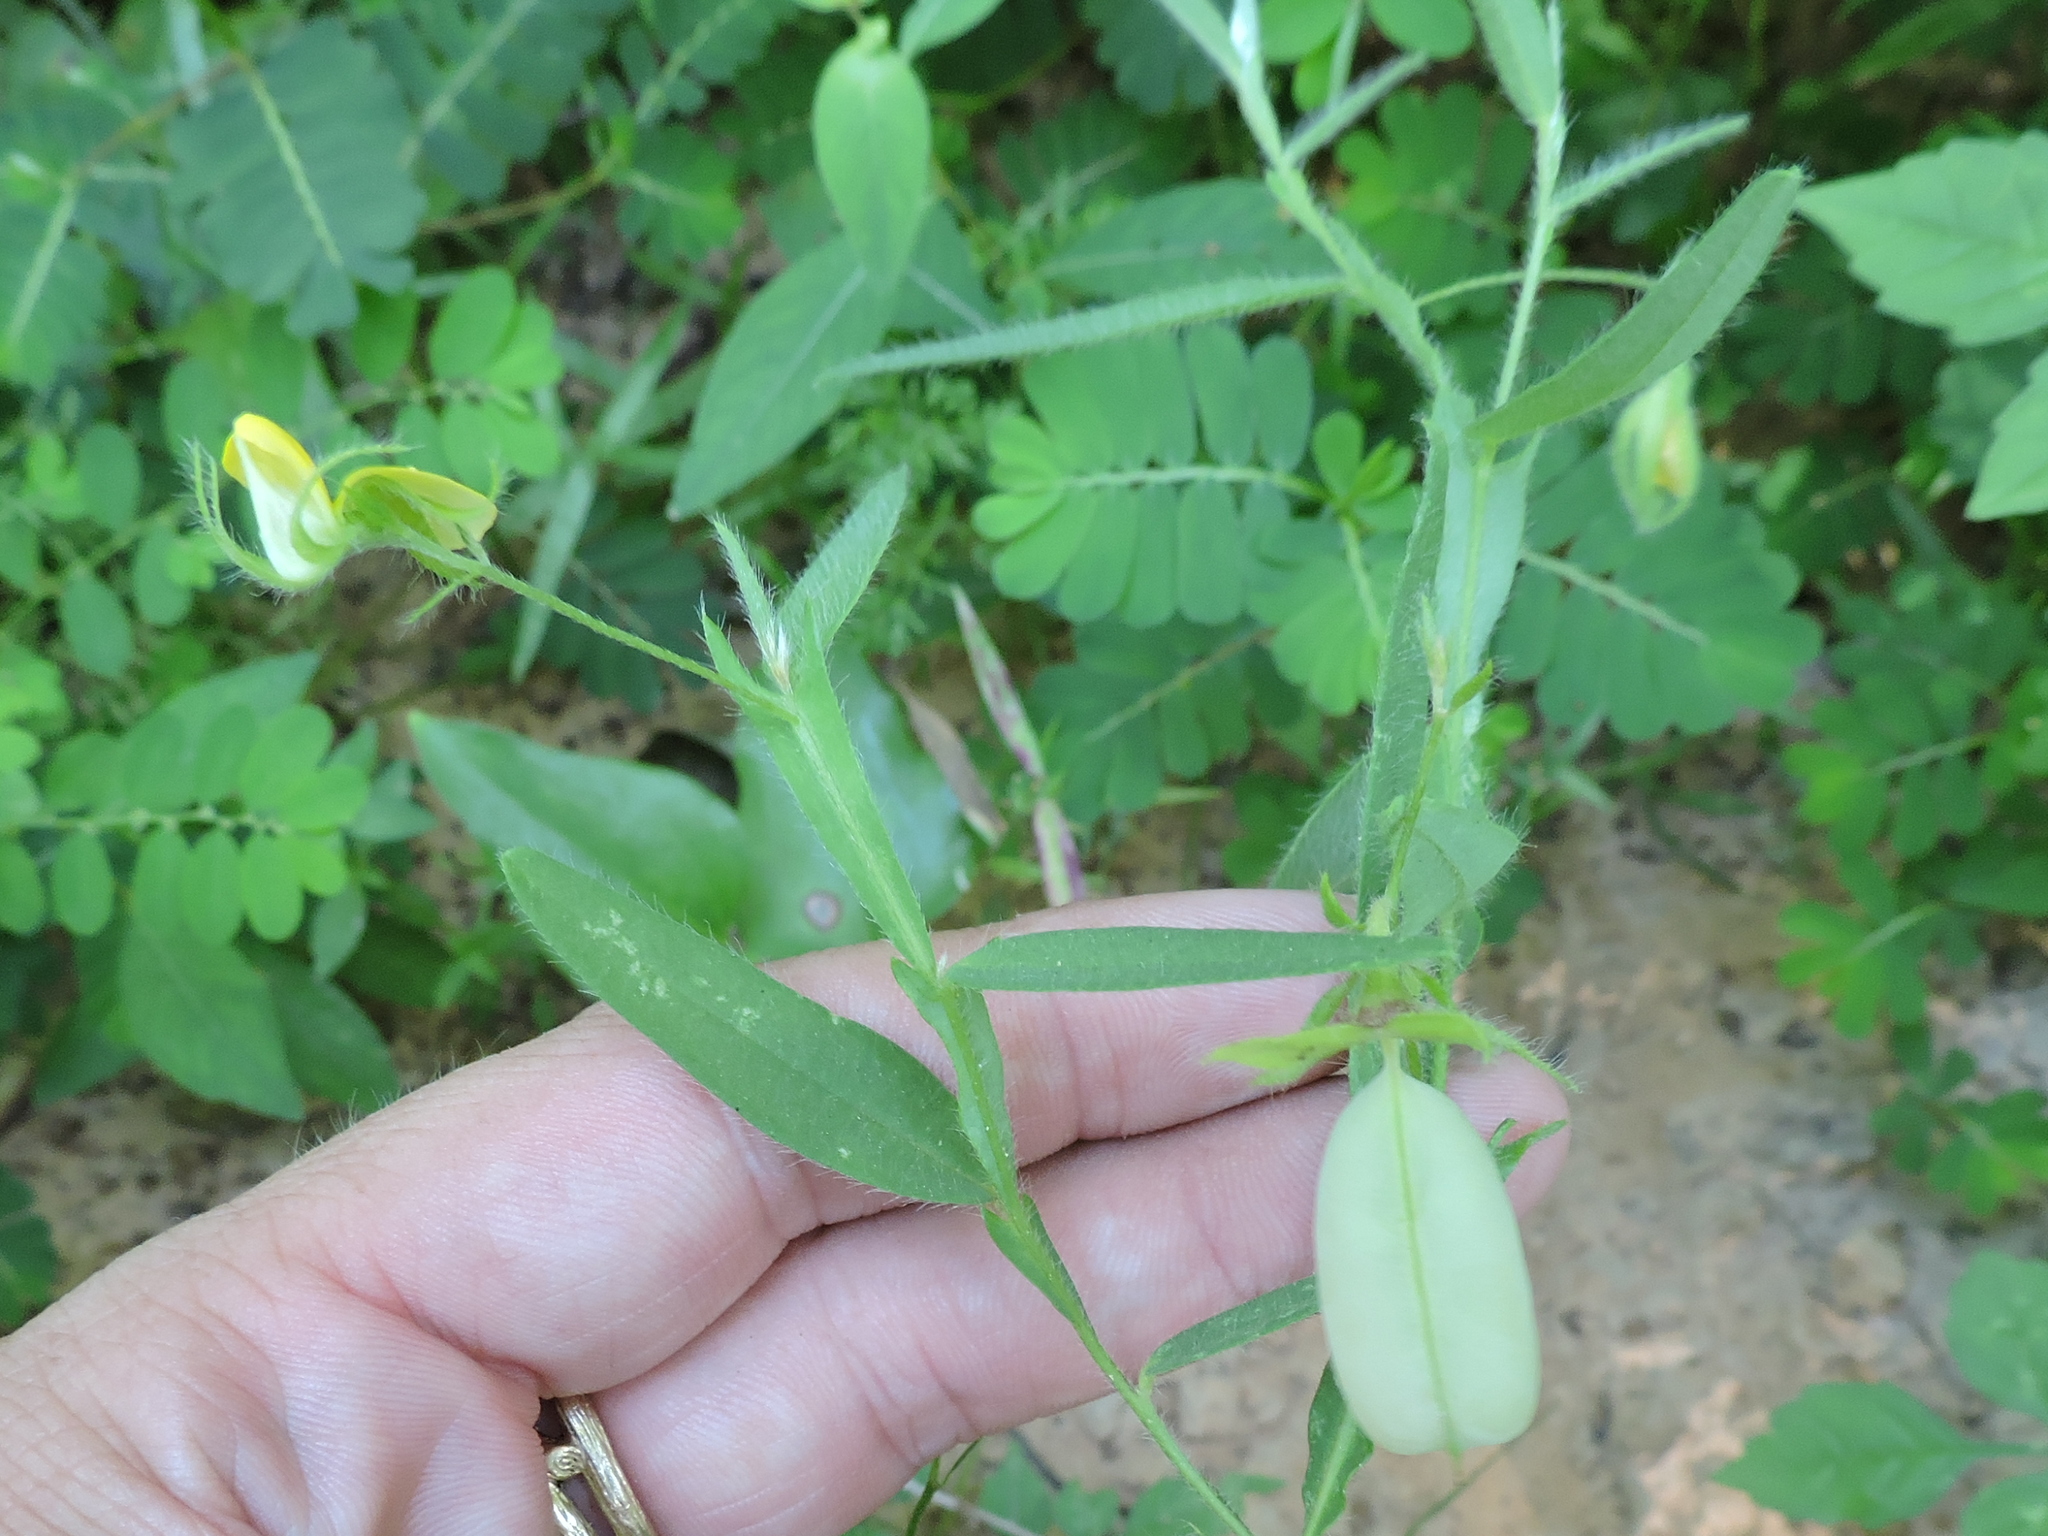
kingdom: Plantae
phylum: Tracheophyta
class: Magnoliopsida
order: Fabales
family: Fabaceae
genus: Crotalaria
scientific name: Crotalaria sagittalis
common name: Arrowhead rattlebox
